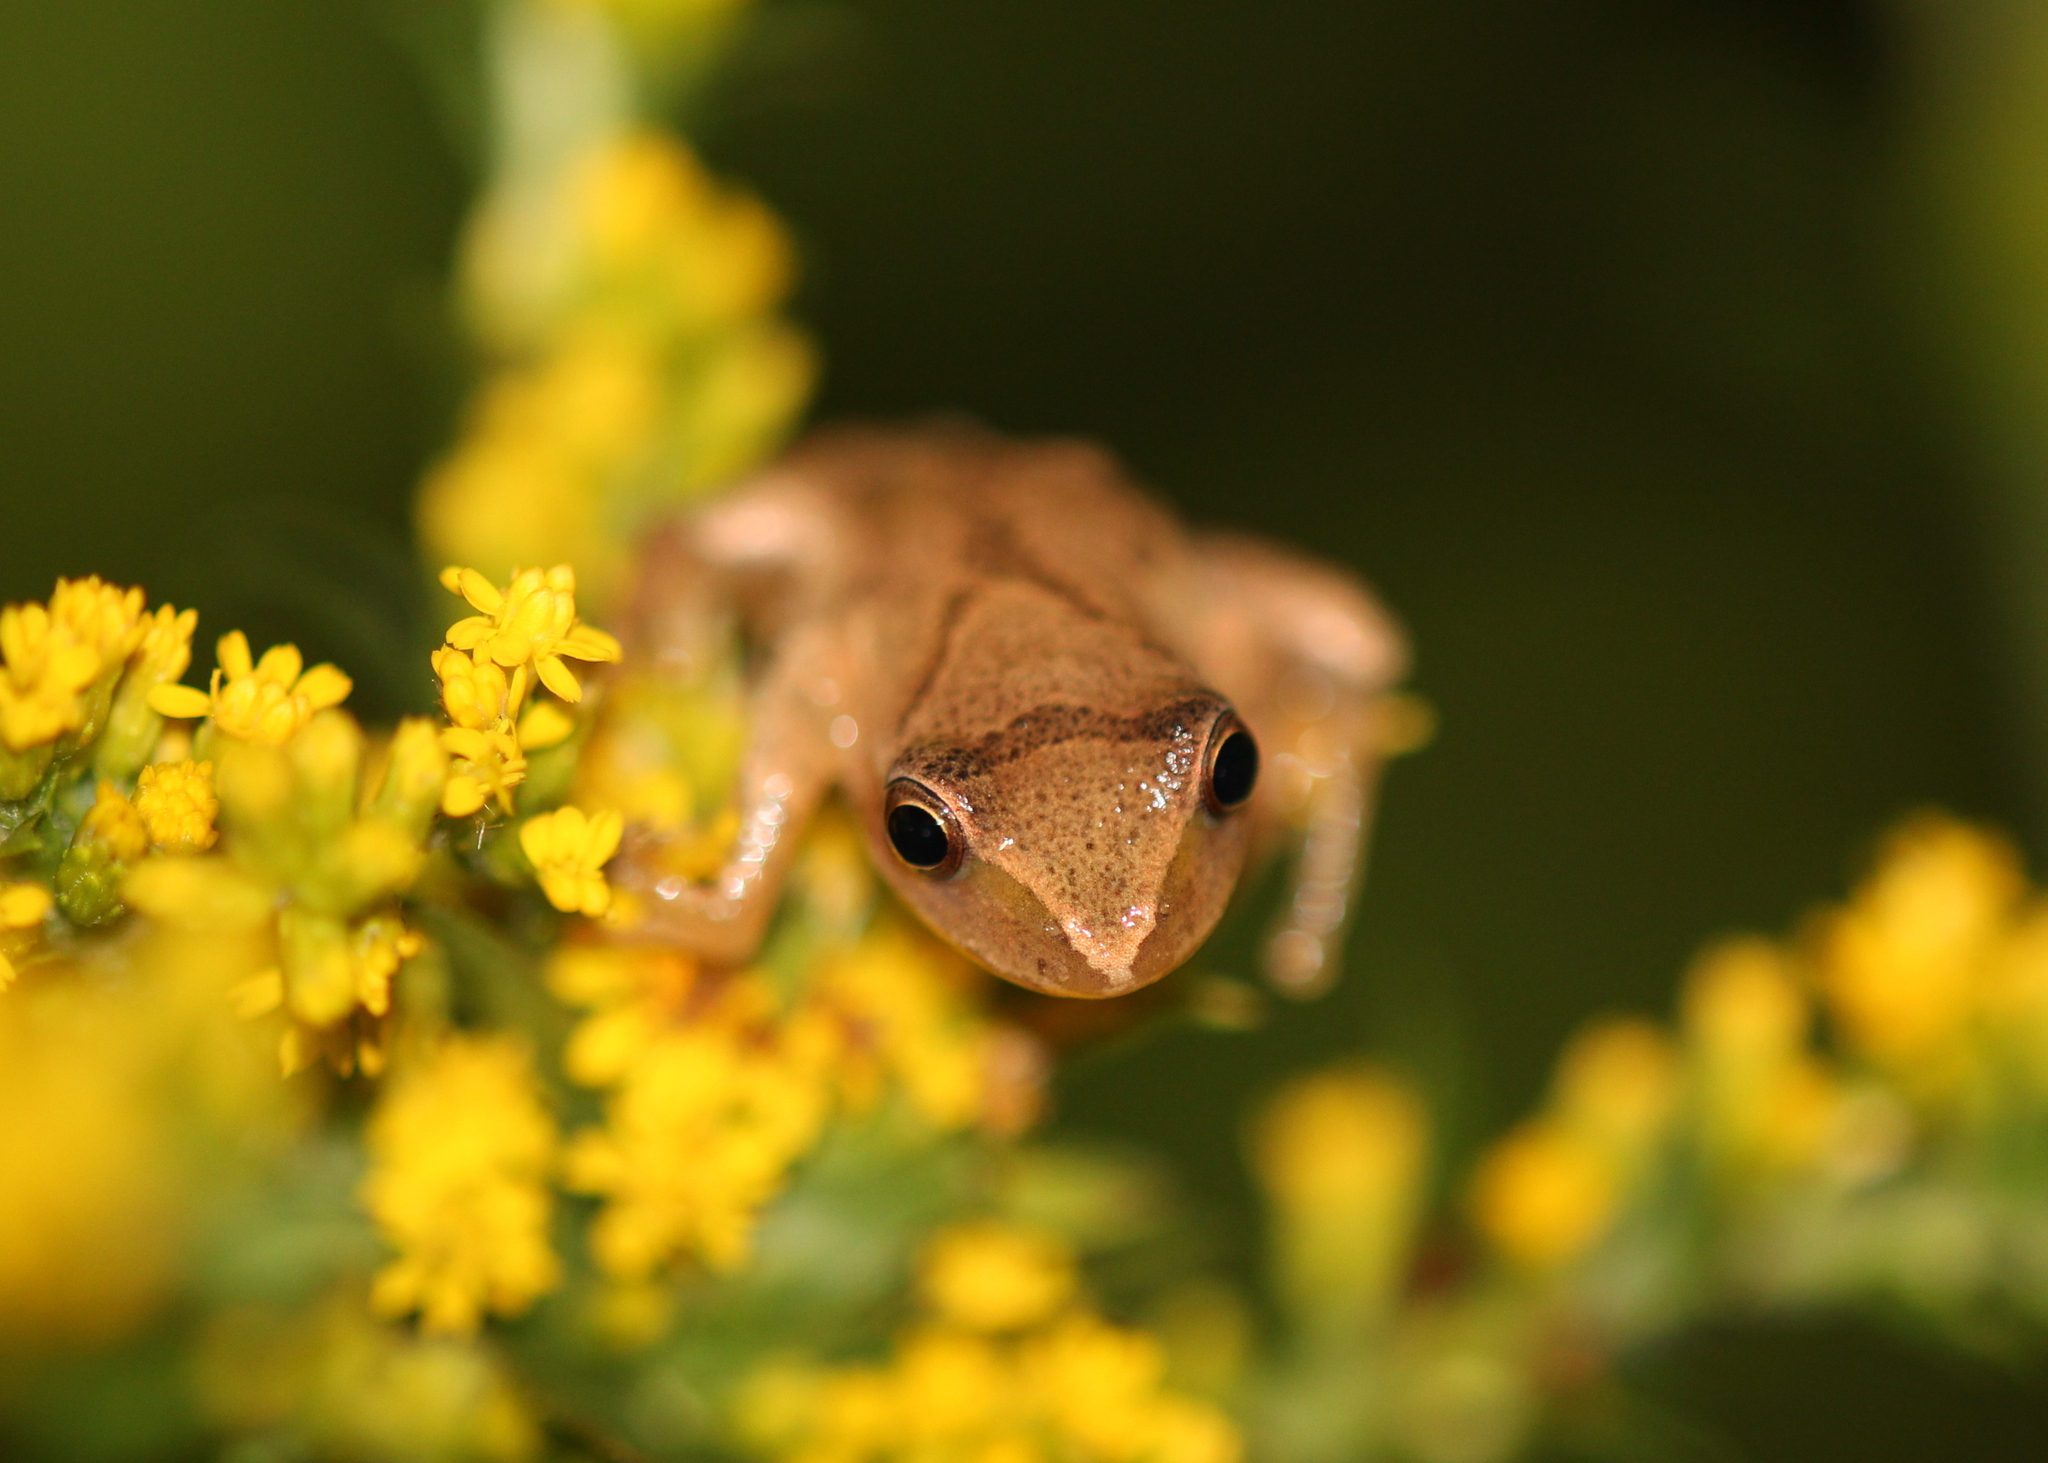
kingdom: Animalia
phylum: Chordata
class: Amphibia
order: Anura
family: Hylidae
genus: Pseudacris
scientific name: Pseudacris crucifer
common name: Spring peeper
